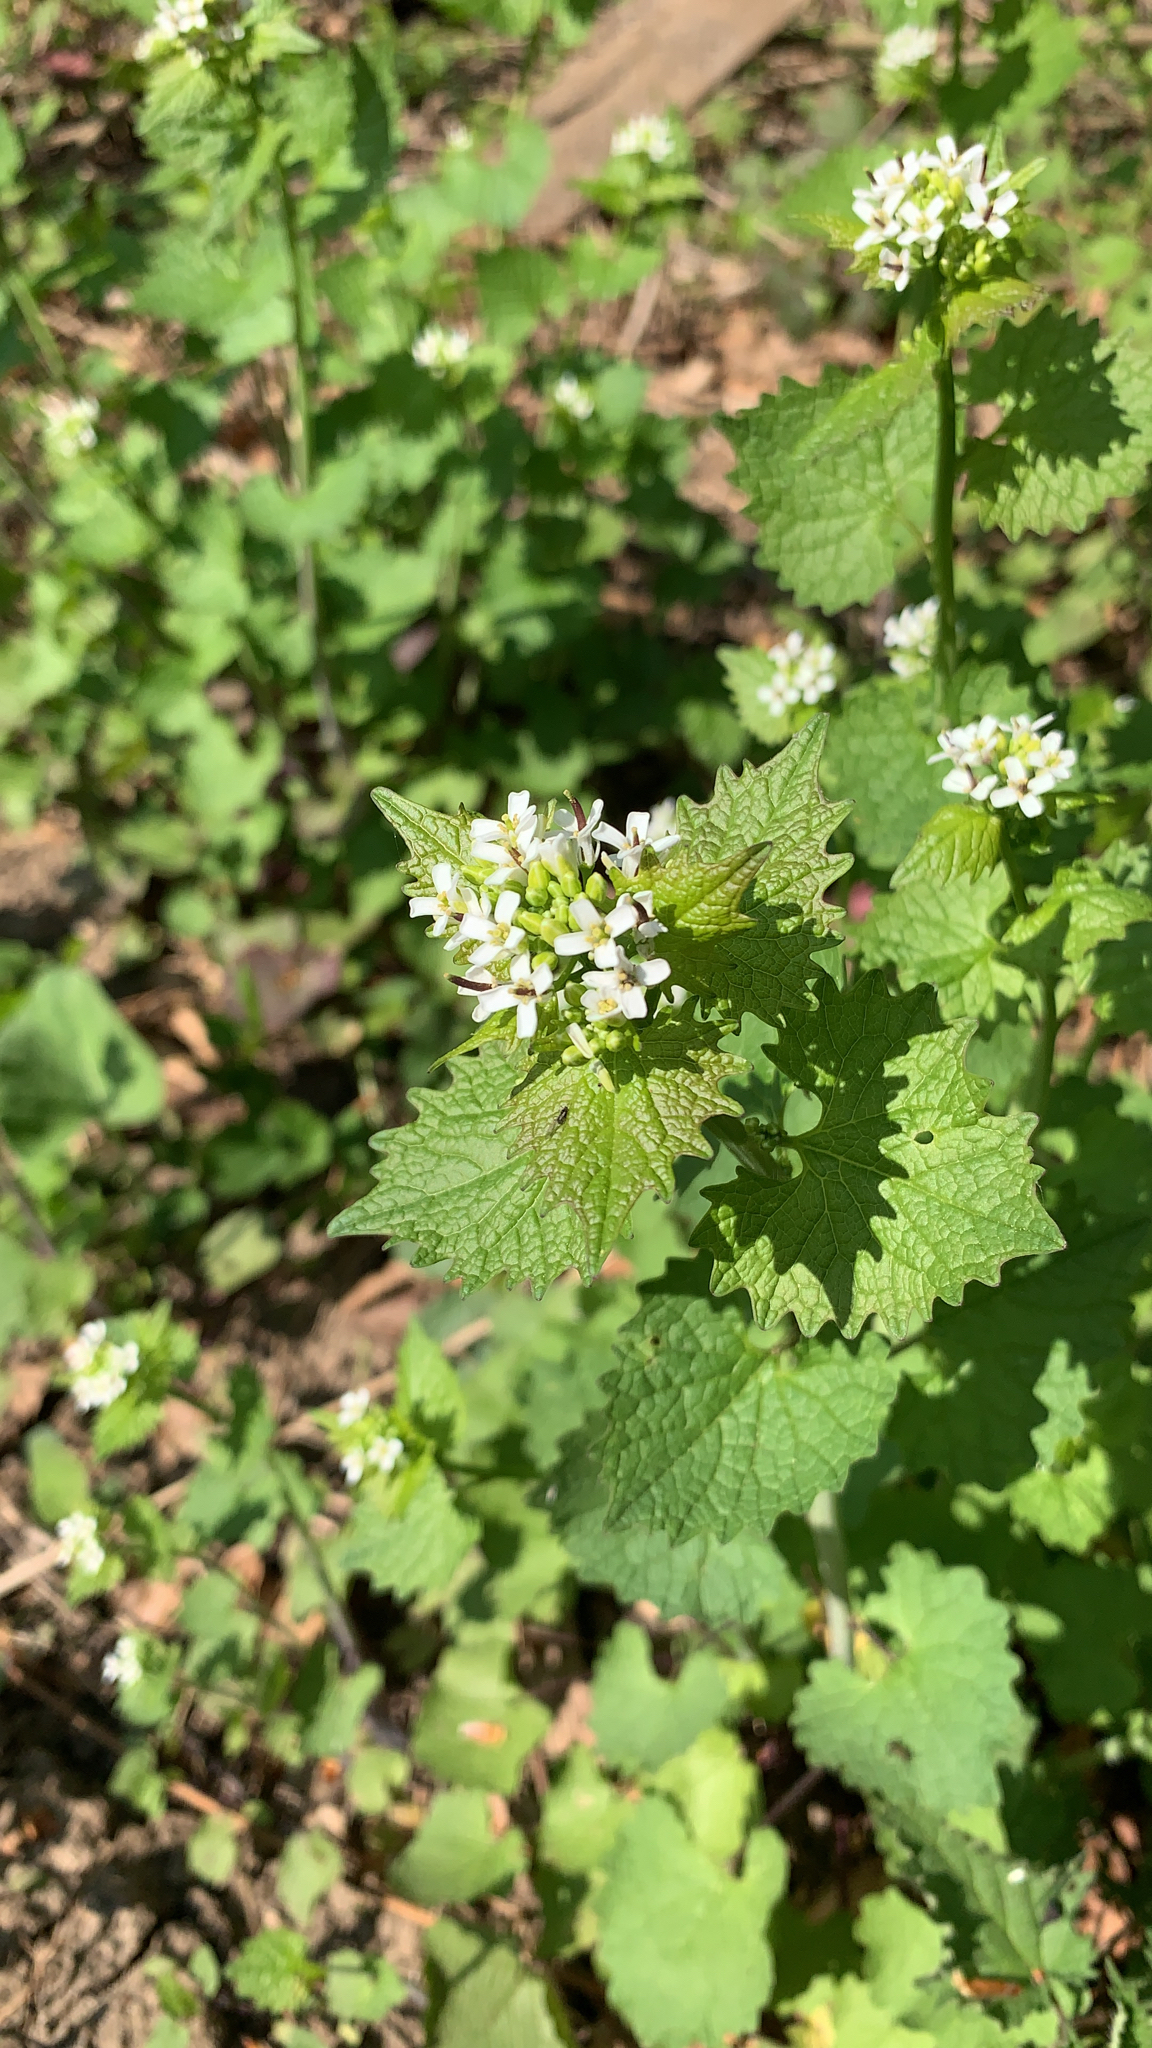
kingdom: Plantae
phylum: Tracheophyta
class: Magnoliopsida
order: Brassicales
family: Brassicaceae
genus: Alliaria
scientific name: Alliaria petiolata
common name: Garlic mustard
